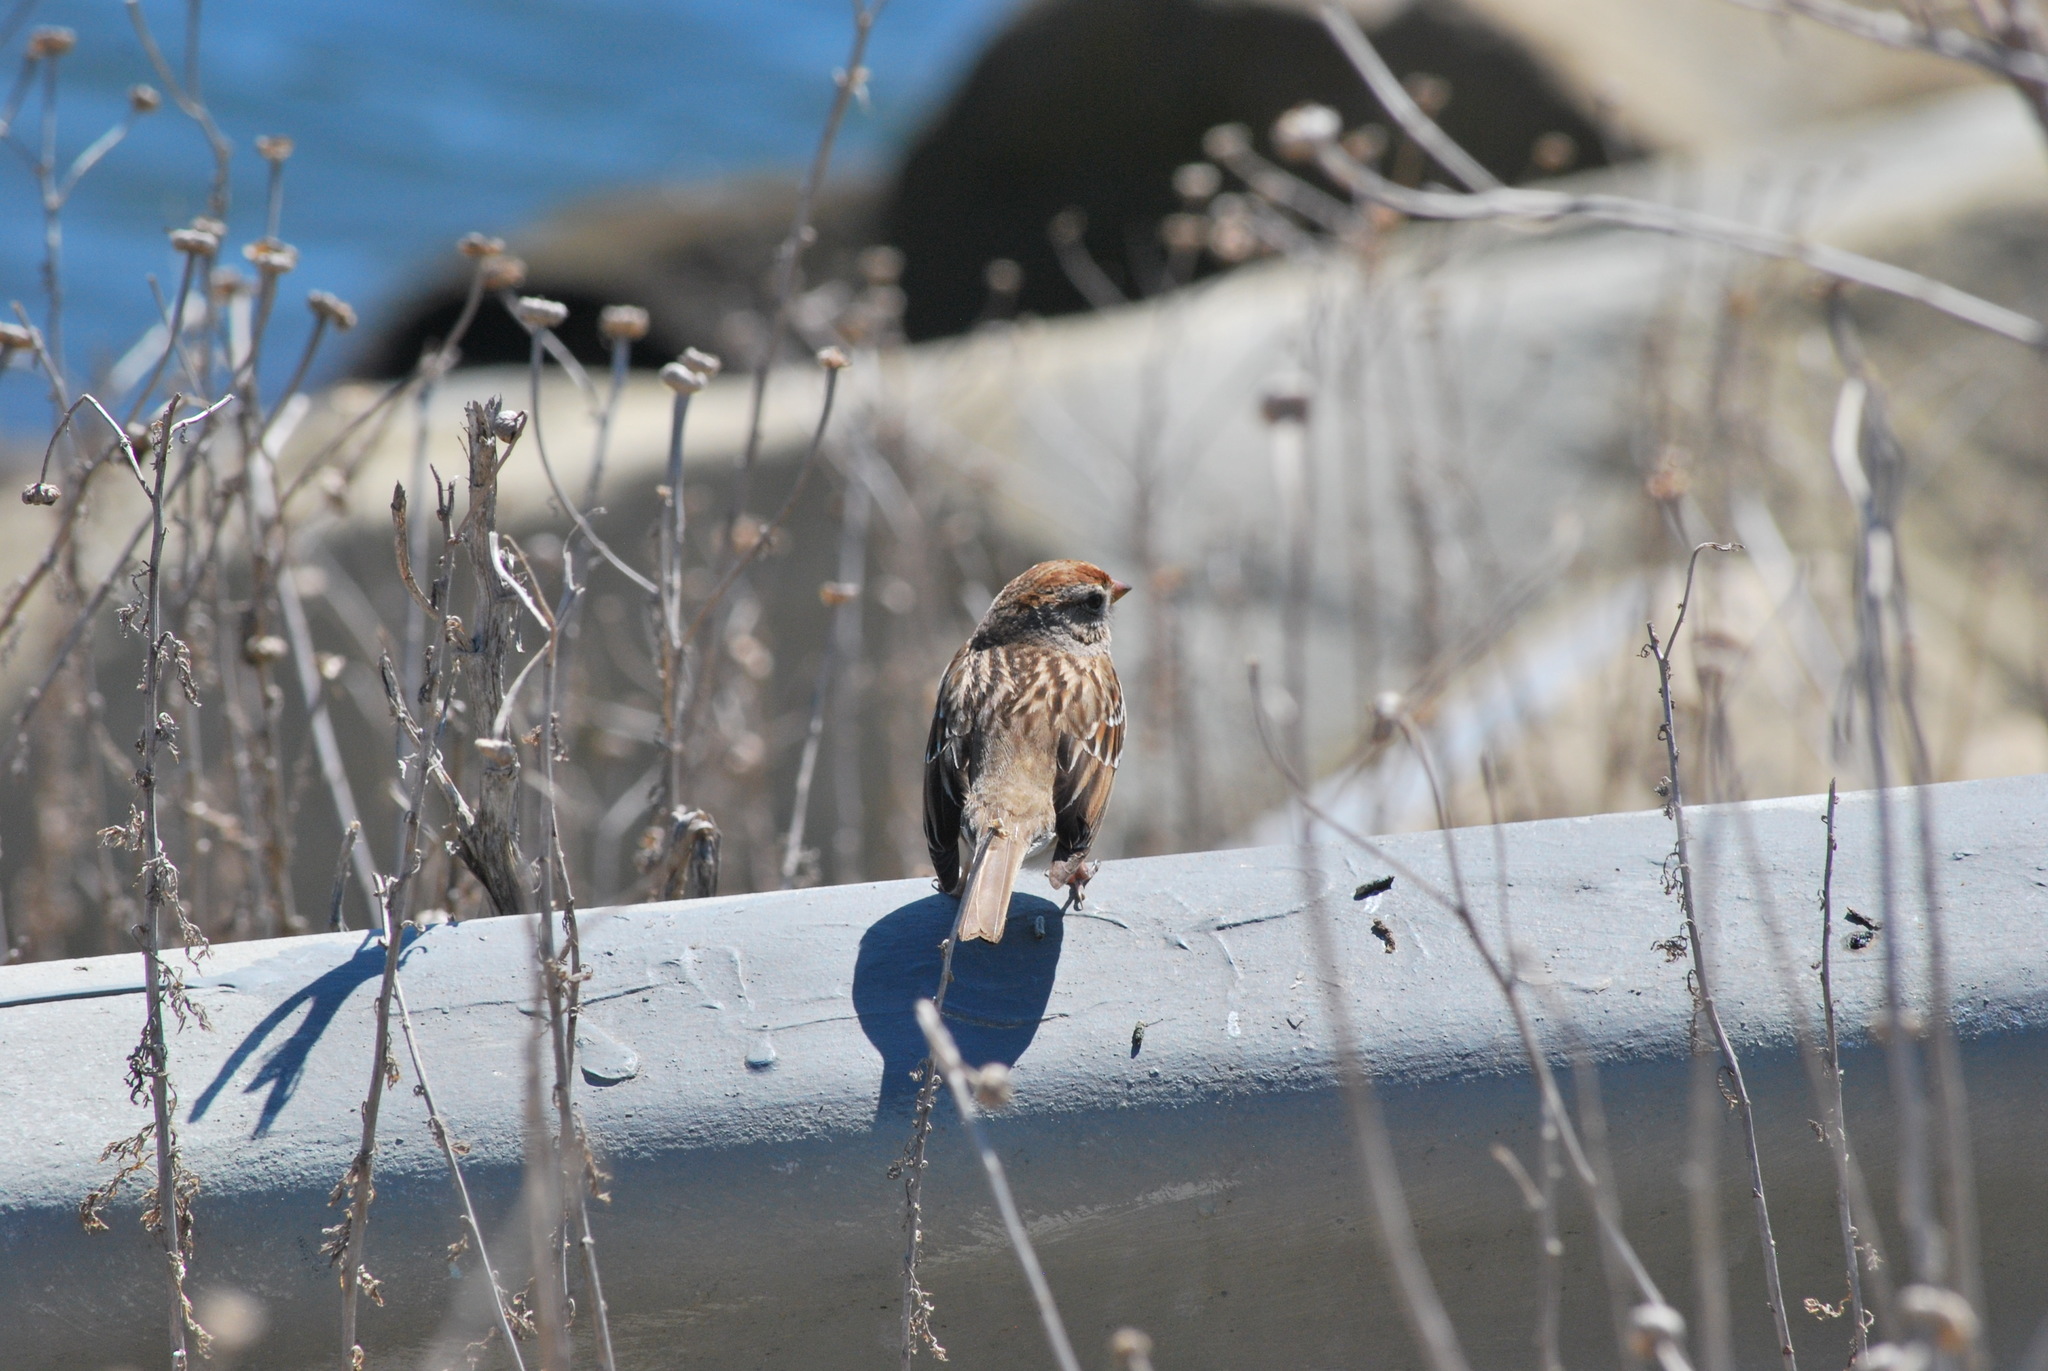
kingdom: Animalia
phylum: Chordata
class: Aves
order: Passeriformes
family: Passerellidae
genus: Zonotrichia
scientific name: Zonotrichia leucophrys
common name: White-crowned sparrow
